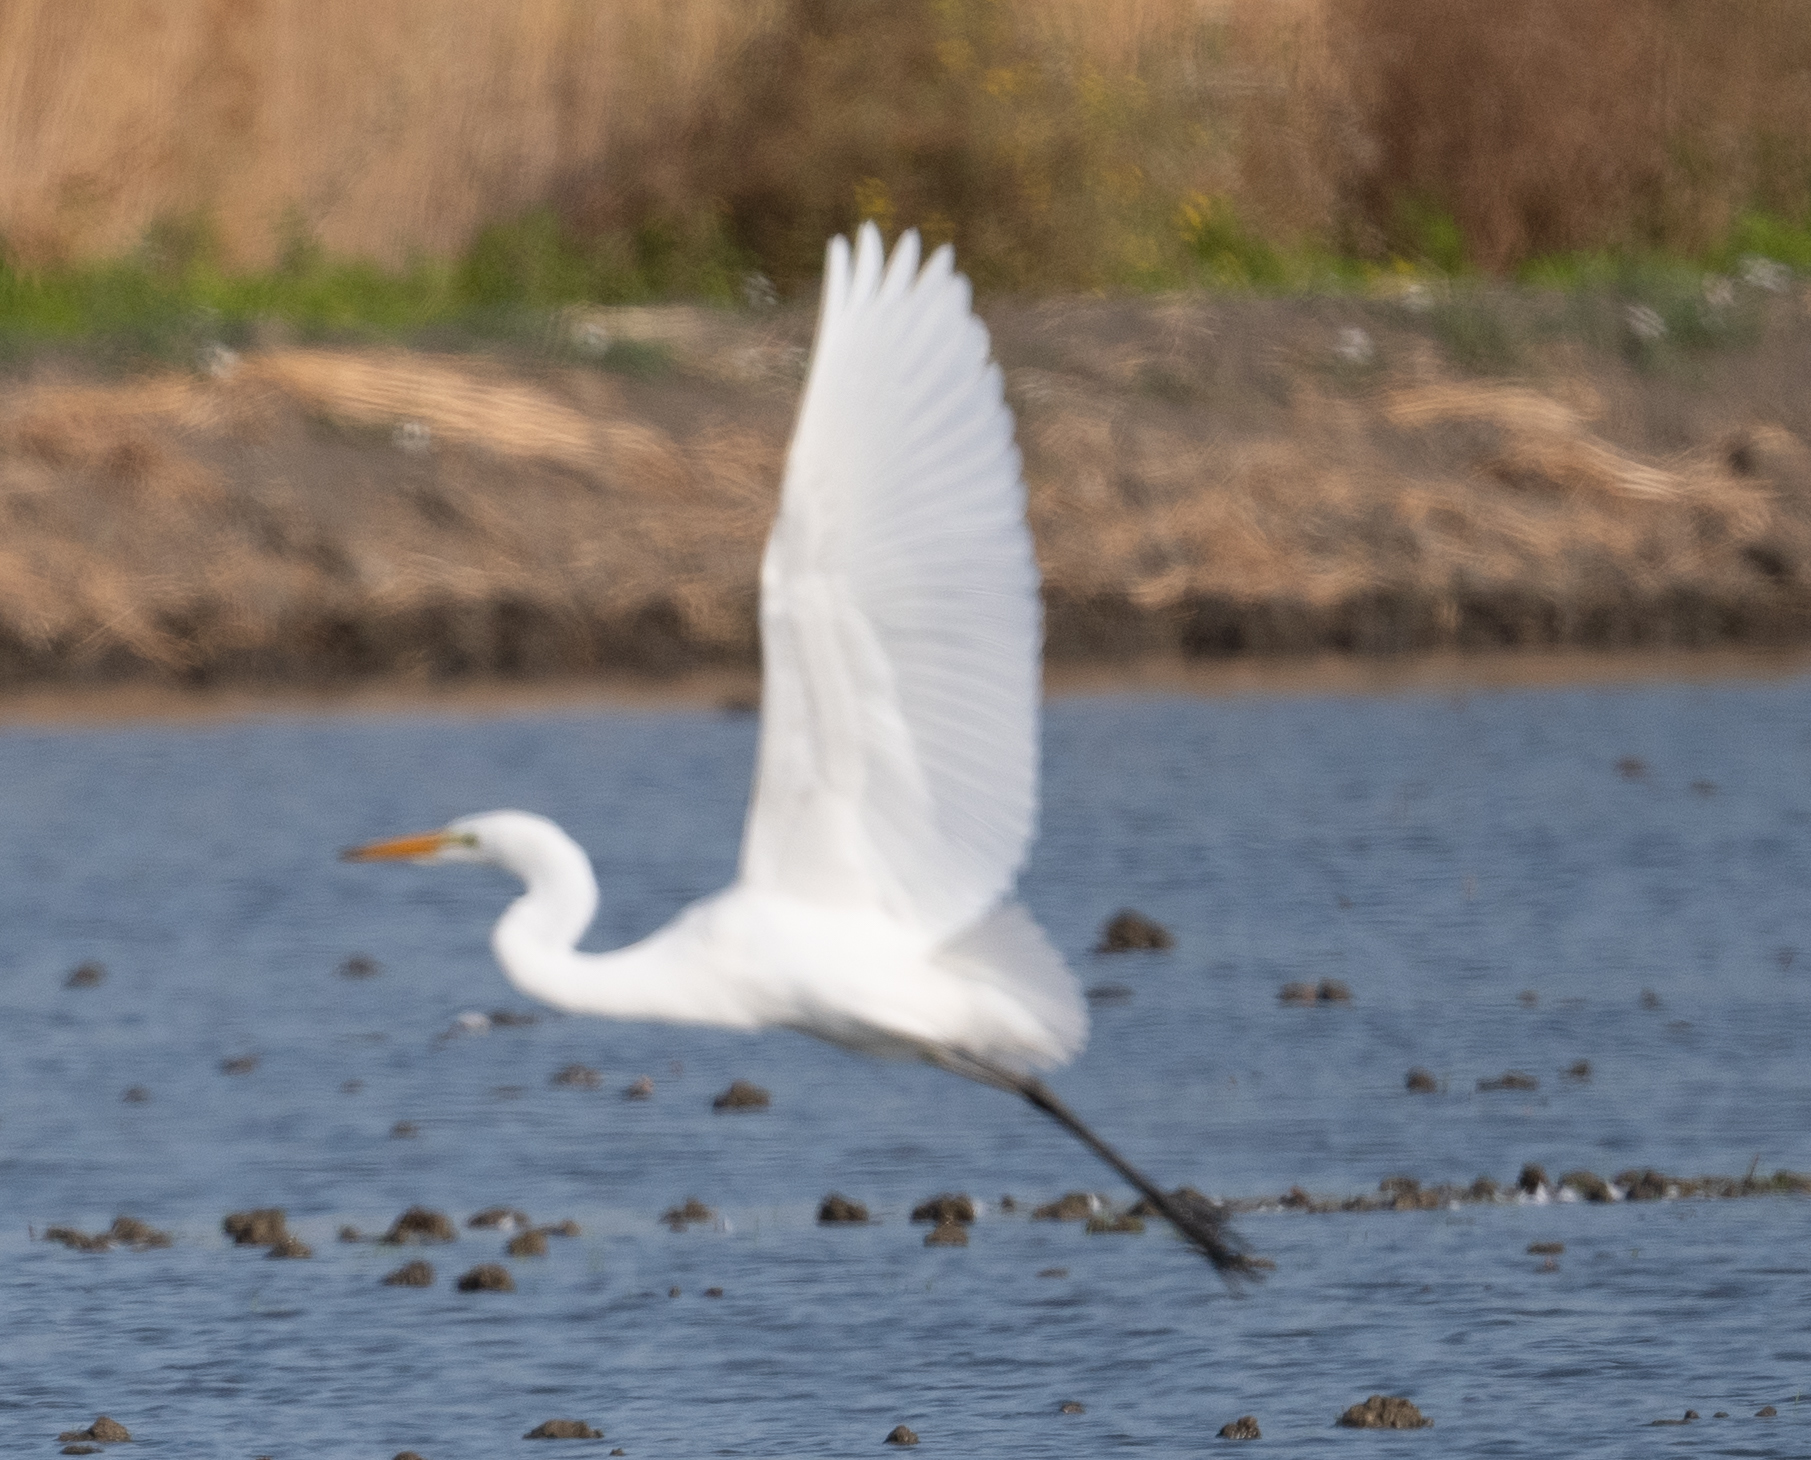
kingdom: Animalia
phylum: Chordata
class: Aves
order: Pelecaniformes
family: Ardeidae
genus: Ardea
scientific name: Ardea alba
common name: Great egret
